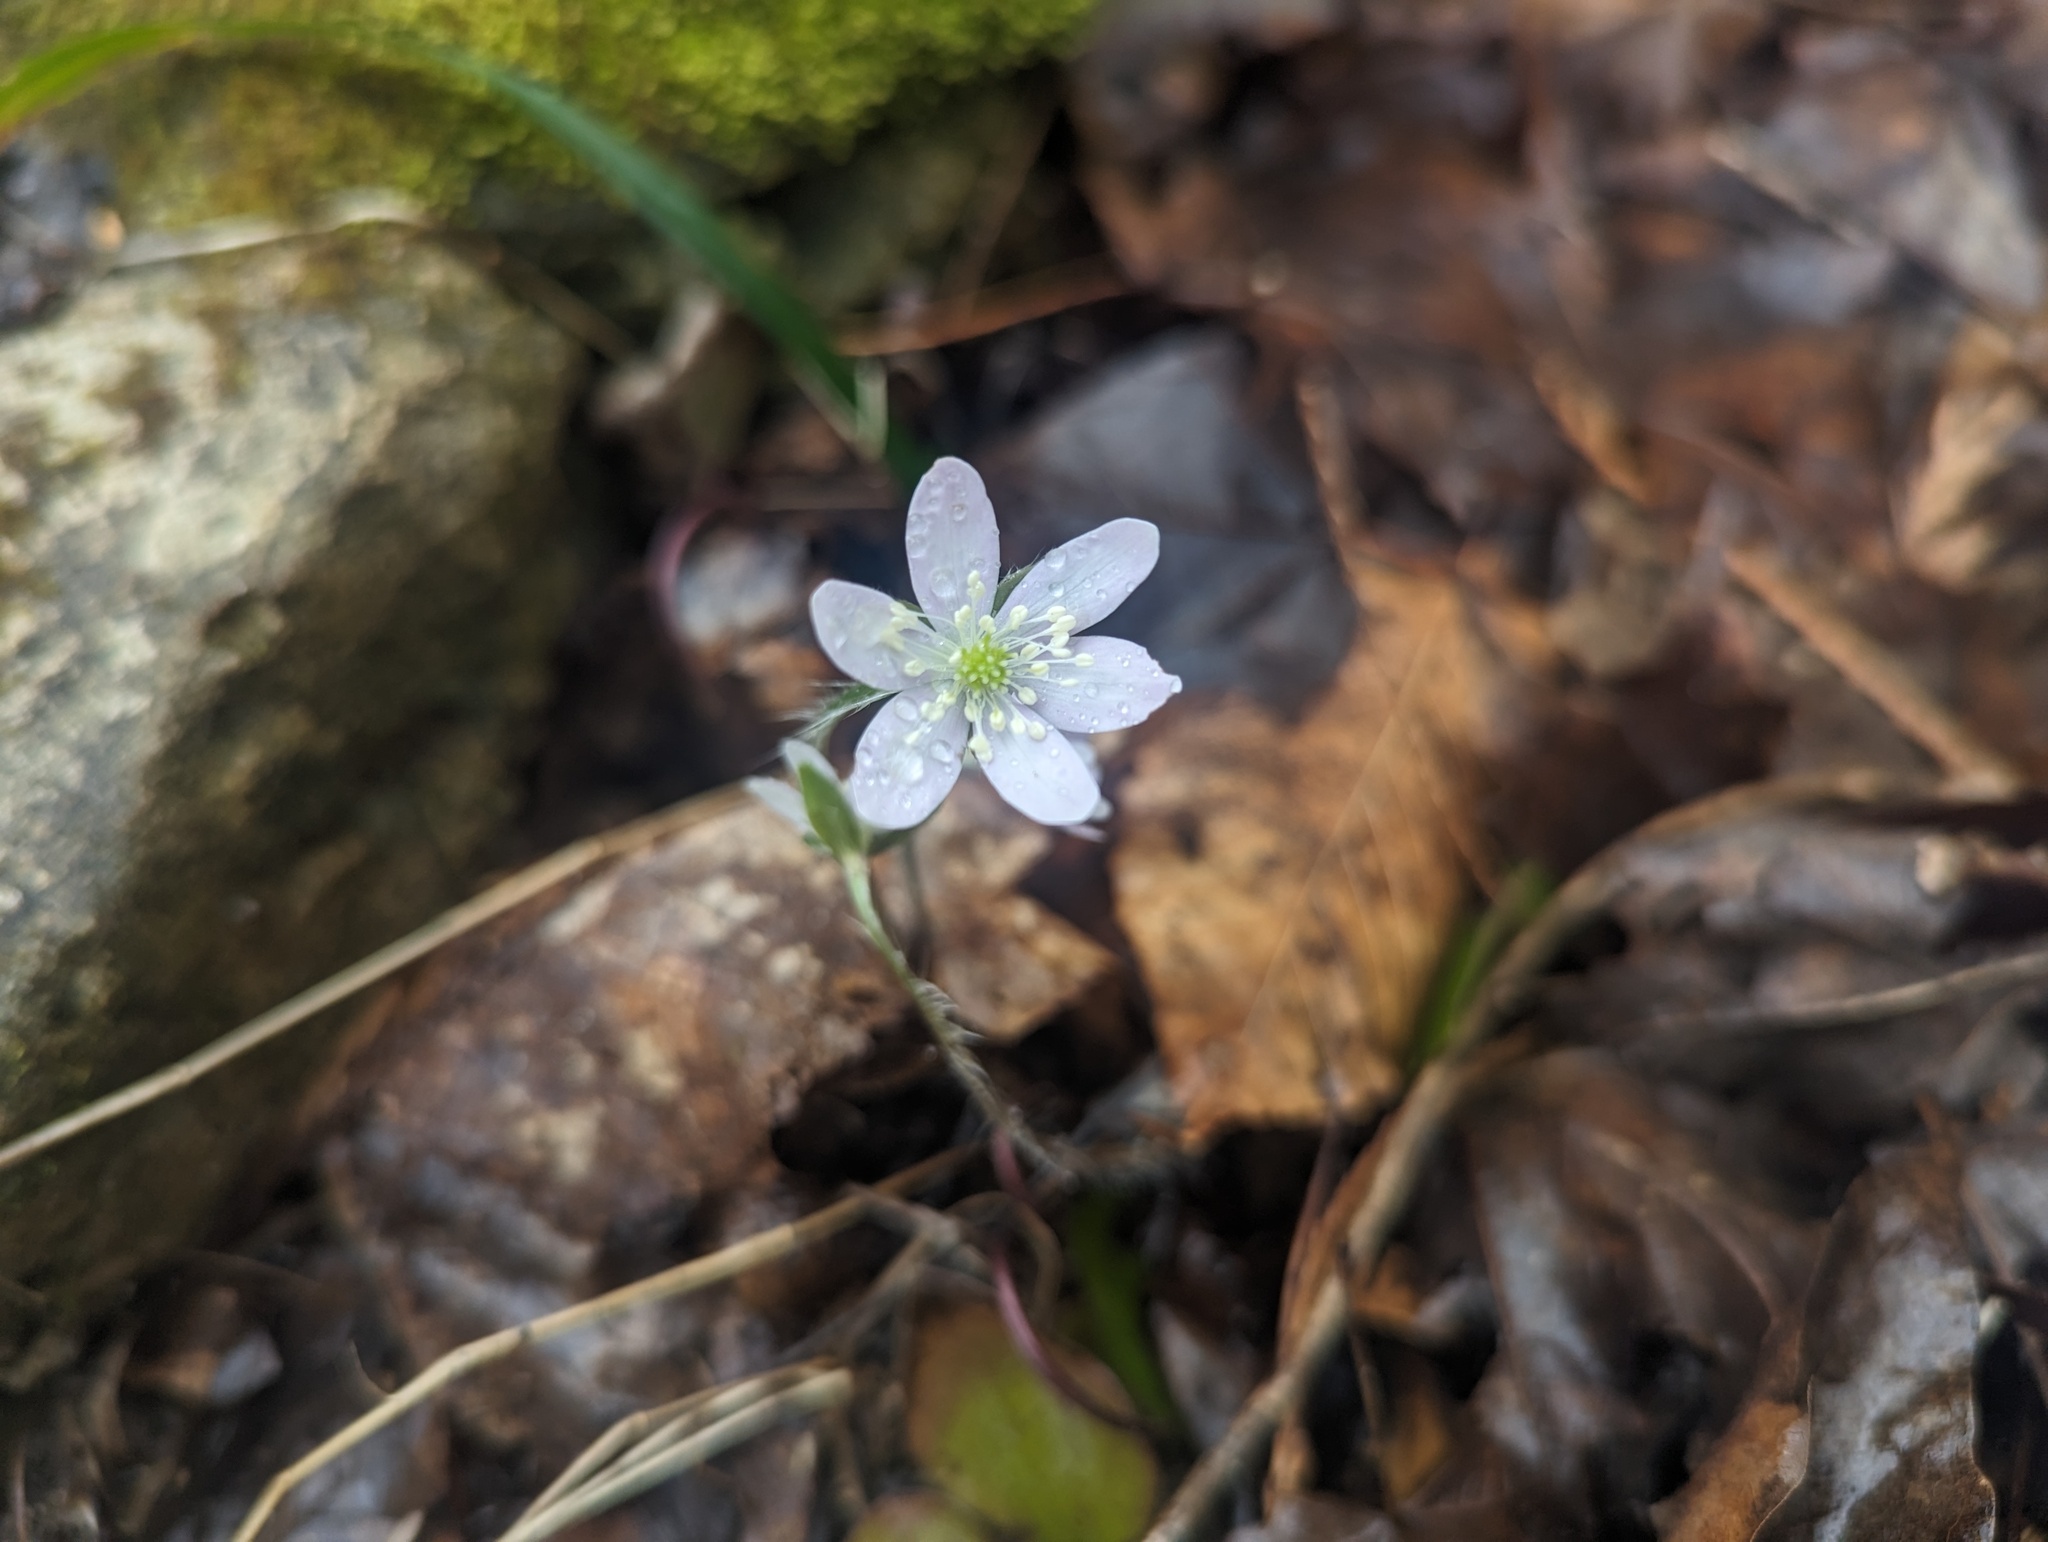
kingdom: Plantae
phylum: Tracheophyta
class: Magnoliopsida
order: Ranunculales
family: Ranunculaceae
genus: Hepatica
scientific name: Hepatica acutiloba
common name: Sharp-lobed hepatica
